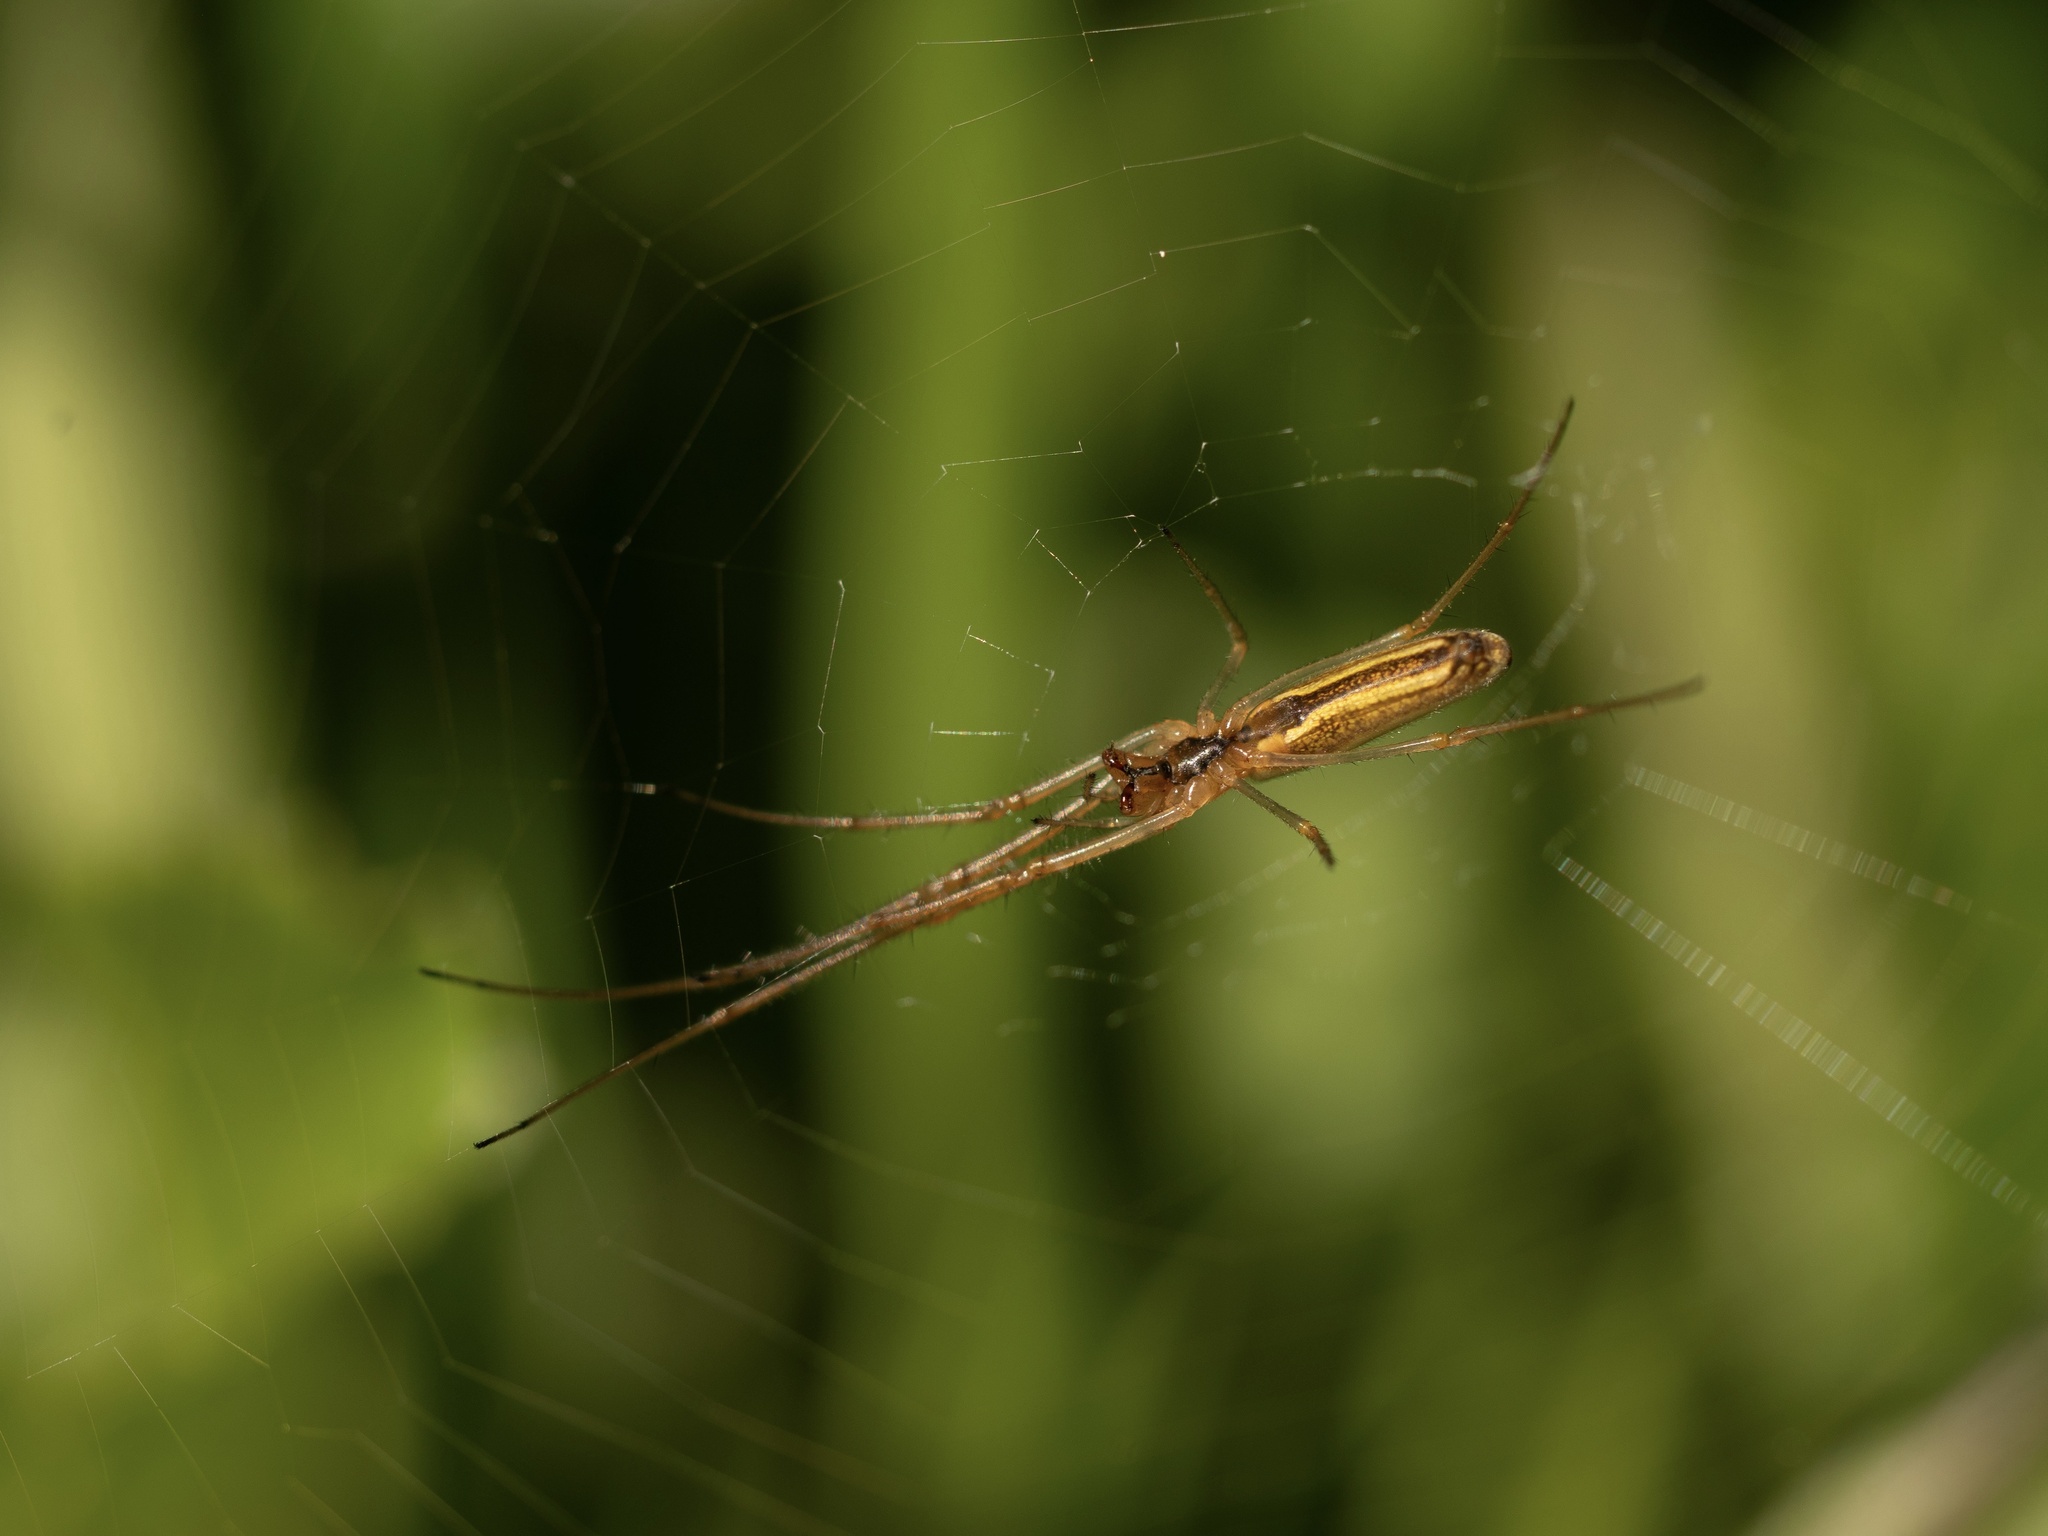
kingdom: Animalia
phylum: Arthropoda
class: Arachnida
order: Araneae
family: Tetragnathidae
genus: Tetragnatha
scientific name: Tetragnatha
